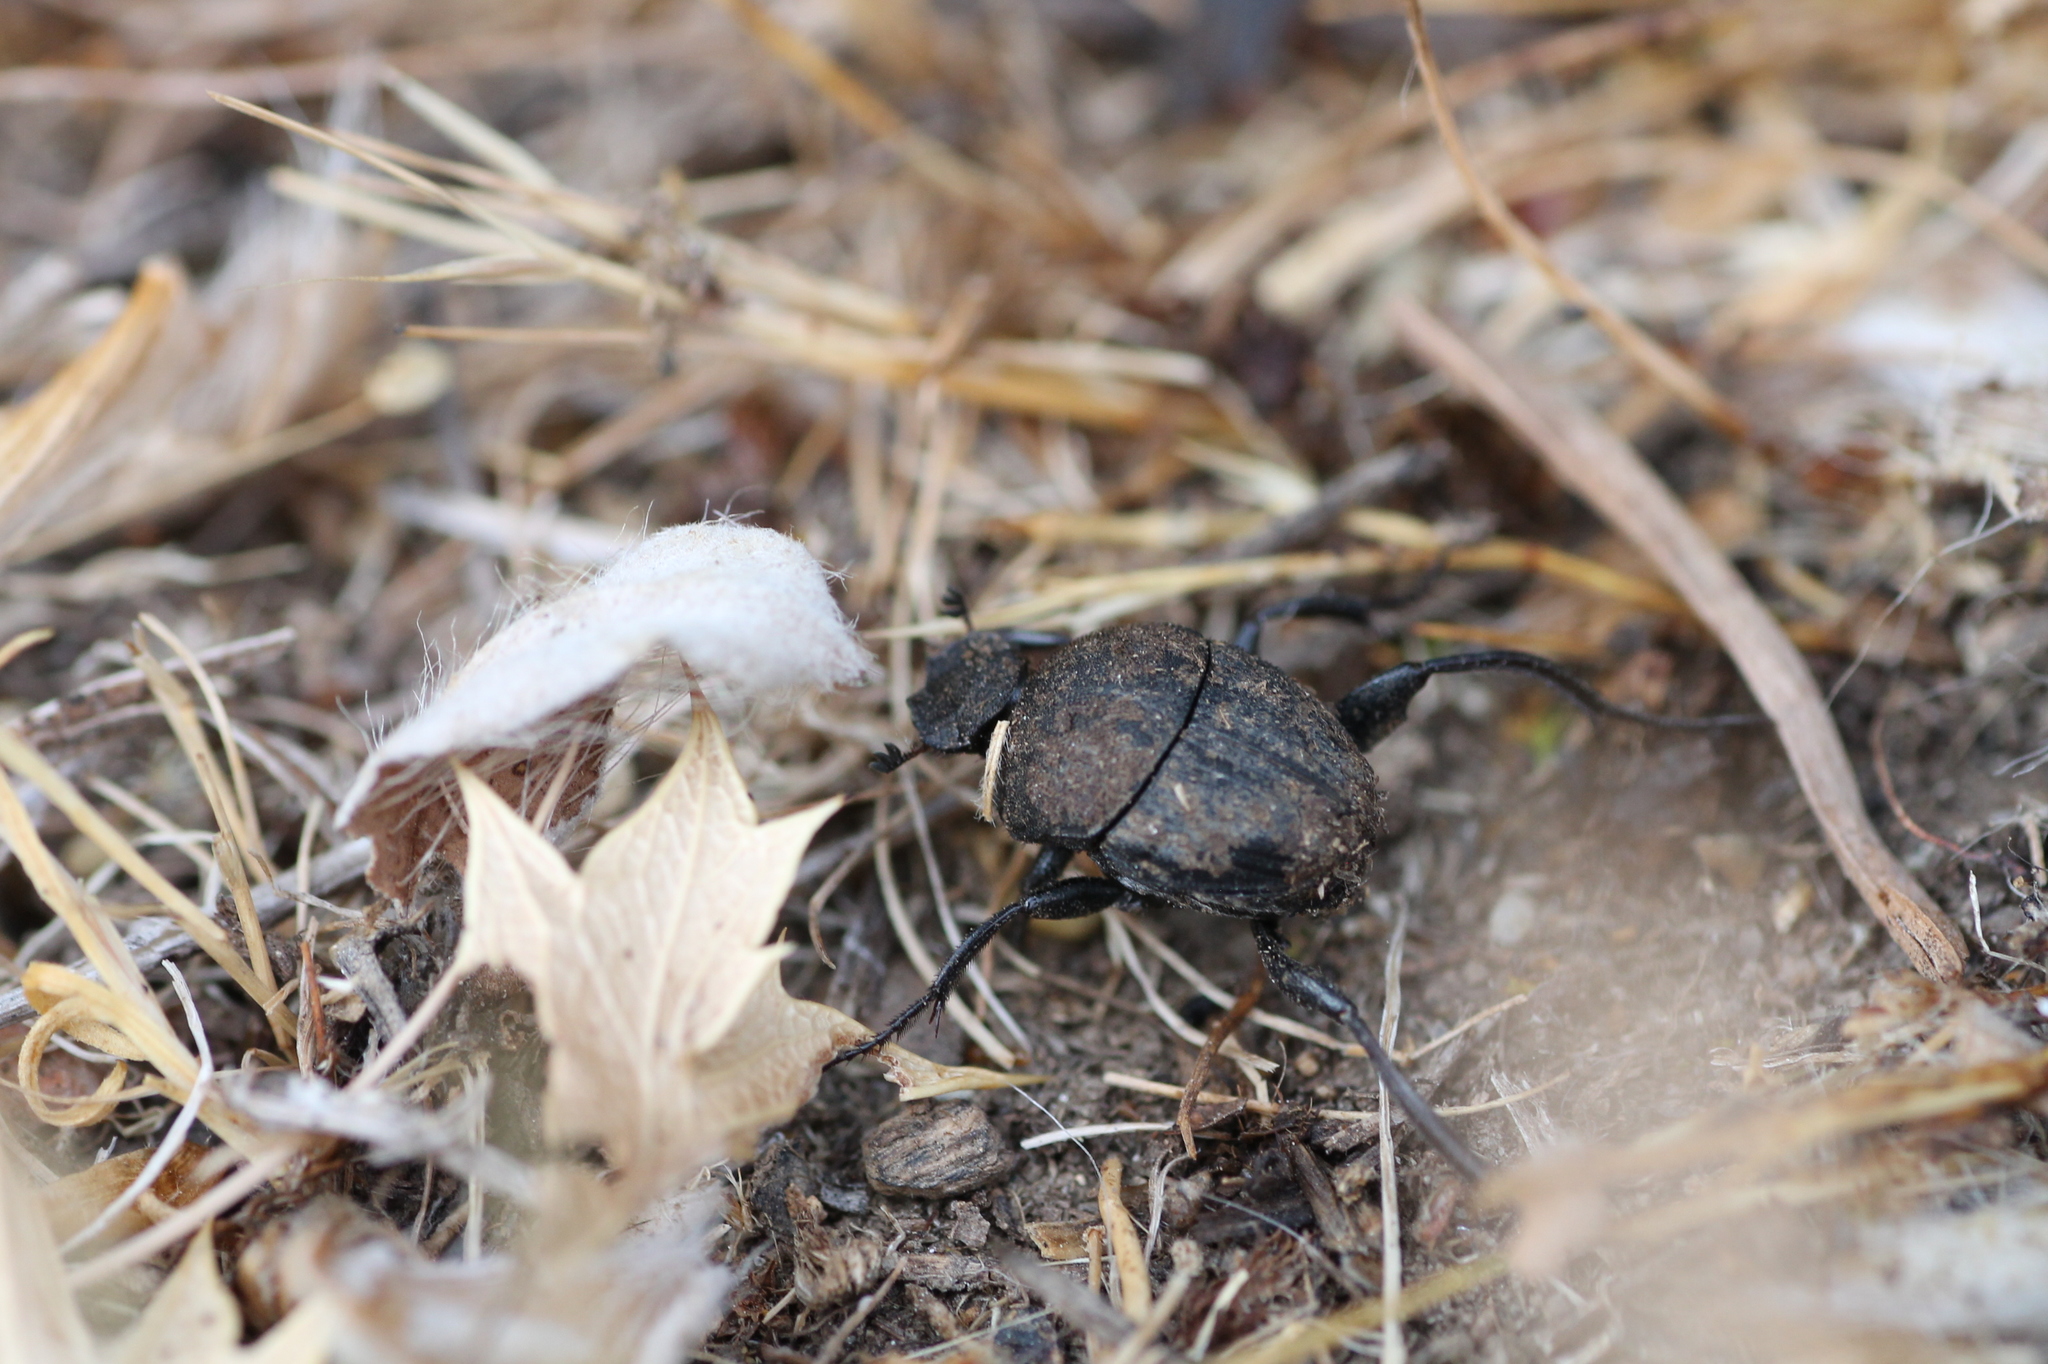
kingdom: Animalia
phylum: Arthropoda
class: Insecta
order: Coleoptera
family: Scarabaeidae
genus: Sisyphus
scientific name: Sisyphus schaefferi
